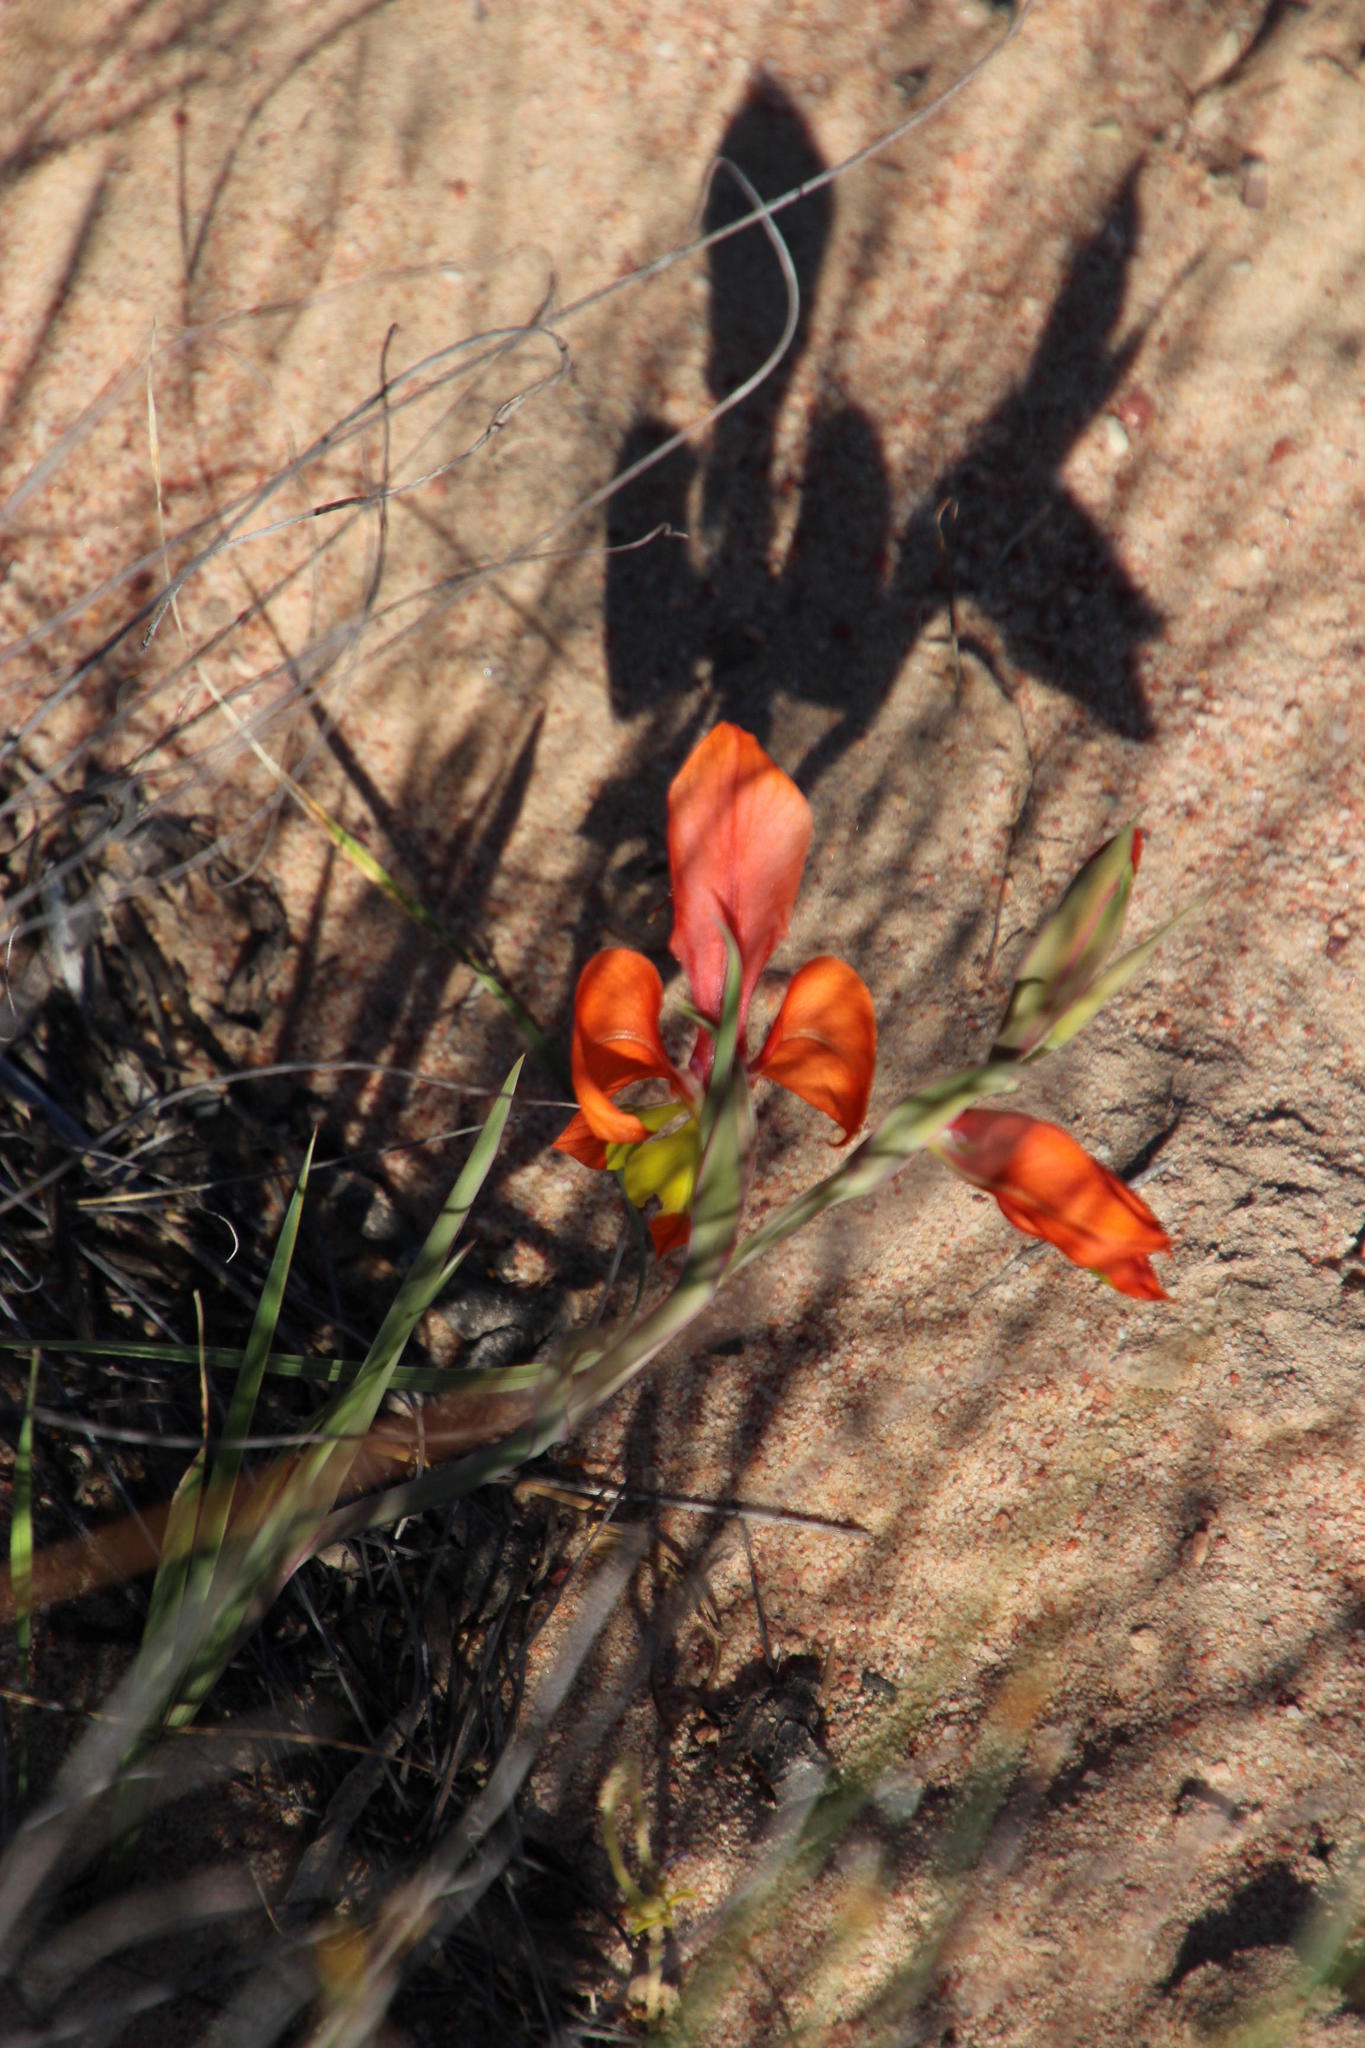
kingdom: Plantae
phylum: Tracheophyta
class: Liliopsida
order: Asparagales
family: Iridaceae
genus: Gladiolus
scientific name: Gladiolus speciosus
